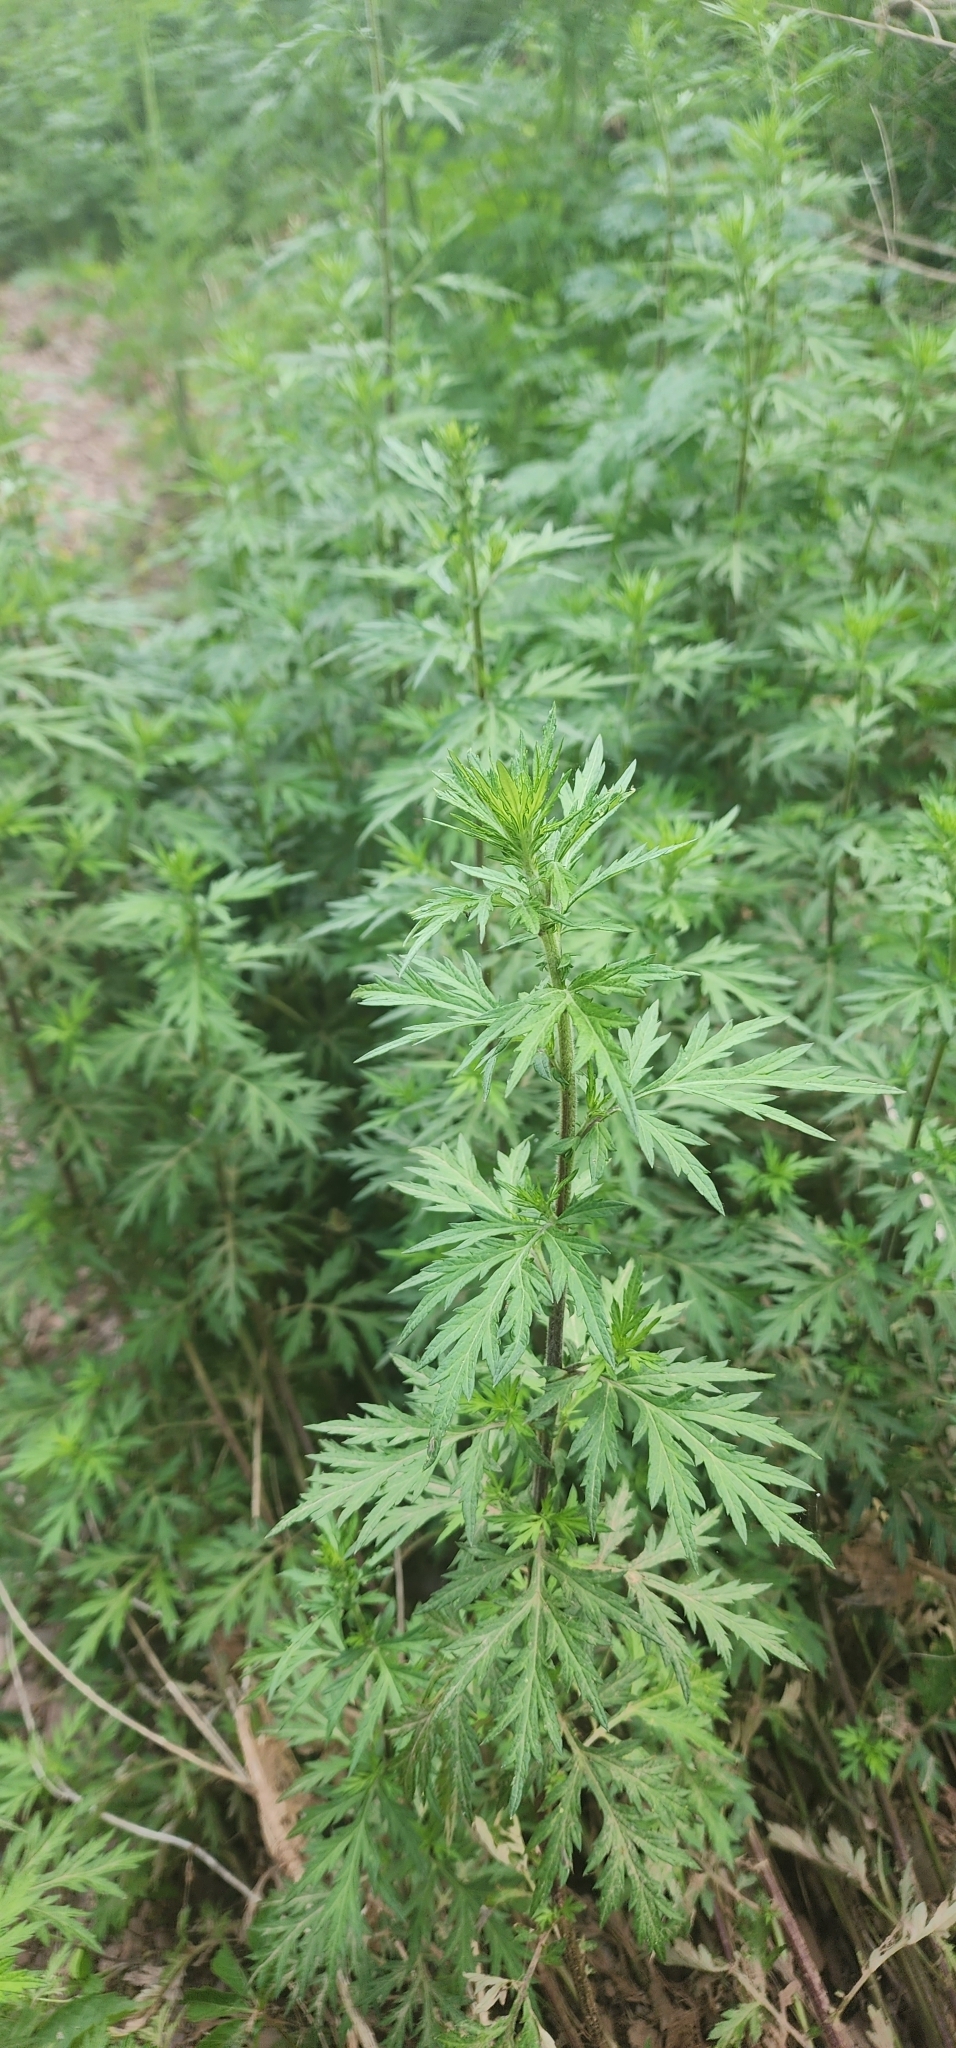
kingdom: Plantae
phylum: Tracheophyta
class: Magnoliopsida
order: Asterales
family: Asteraceae
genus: Artemisia
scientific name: Artemisia vulgaris
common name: Mugwort
